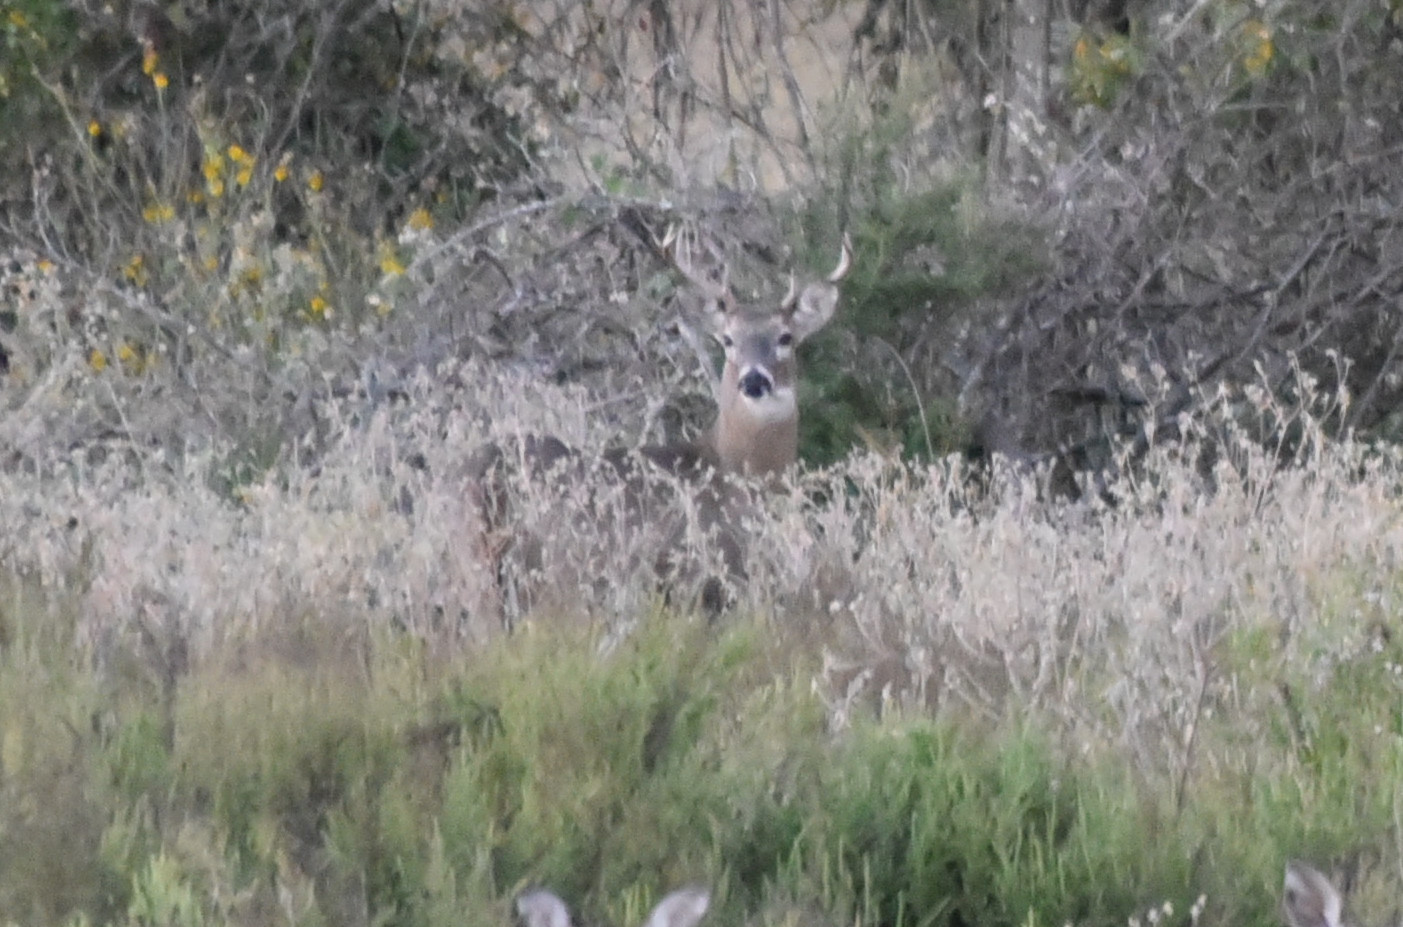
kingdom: Animalia
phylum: Chordata
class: Mammalia
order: Artiodactyla
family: Cervidae
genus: Odocoileus
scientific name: Odocoileus virginianus
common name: White-tailed deer
